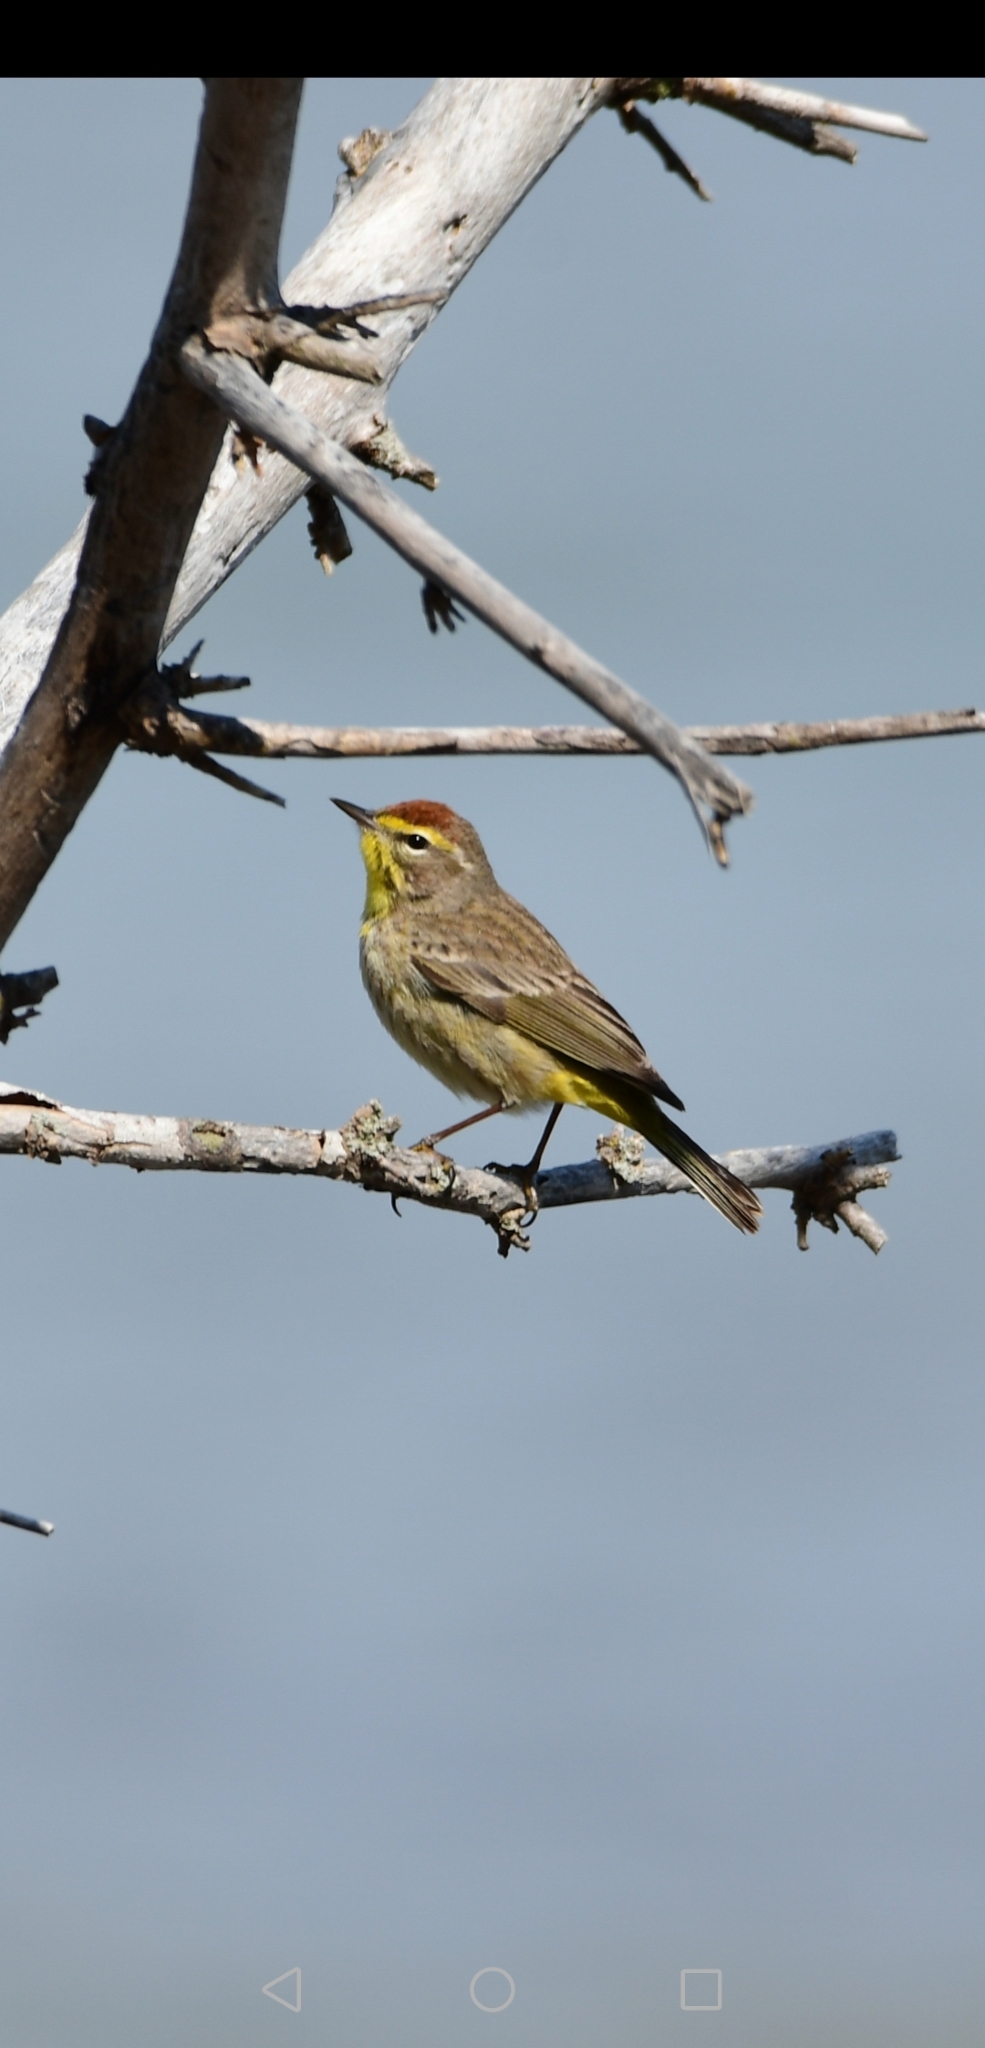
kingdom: Animalia
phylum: Chordata
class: Aves
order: Passeriformes
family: Parulidae
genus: Setophaga
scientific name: Setophaga palmarum
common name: Palm warbler
